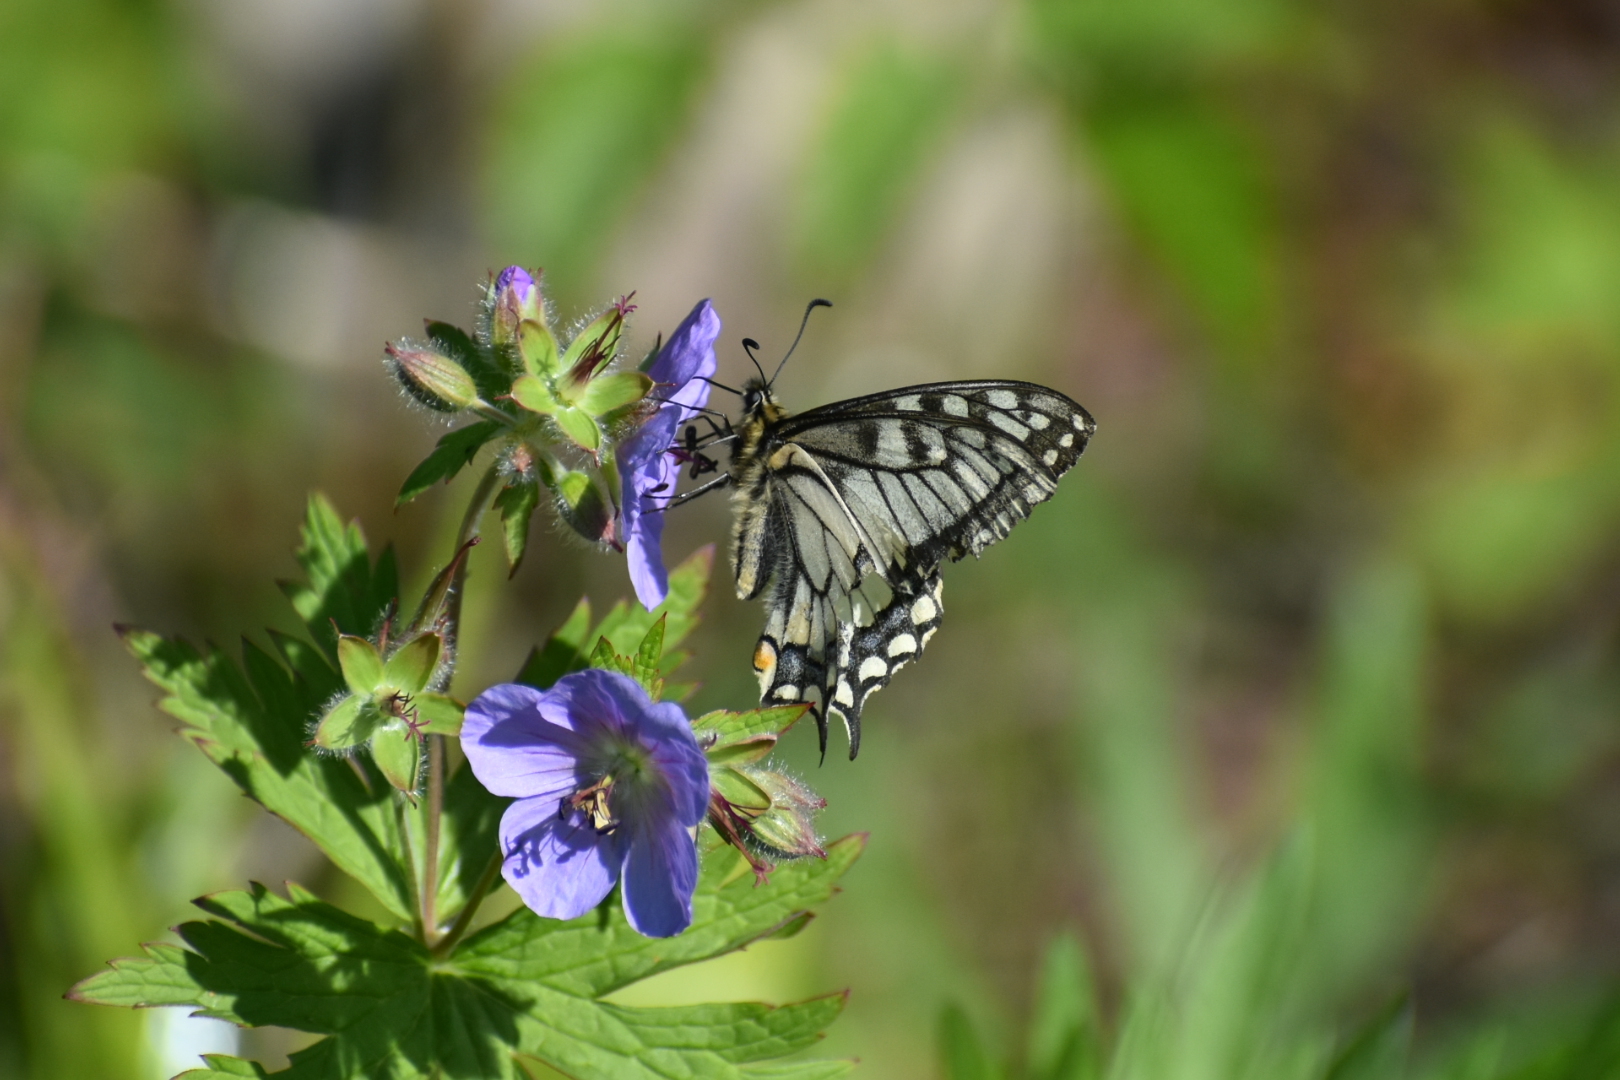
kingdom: Animalia
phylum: Arthropoda
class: Insecta
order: Lepidoptera
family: Papilionidae
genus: Papilio
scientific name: Papilio machaon
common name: Swallowtail
